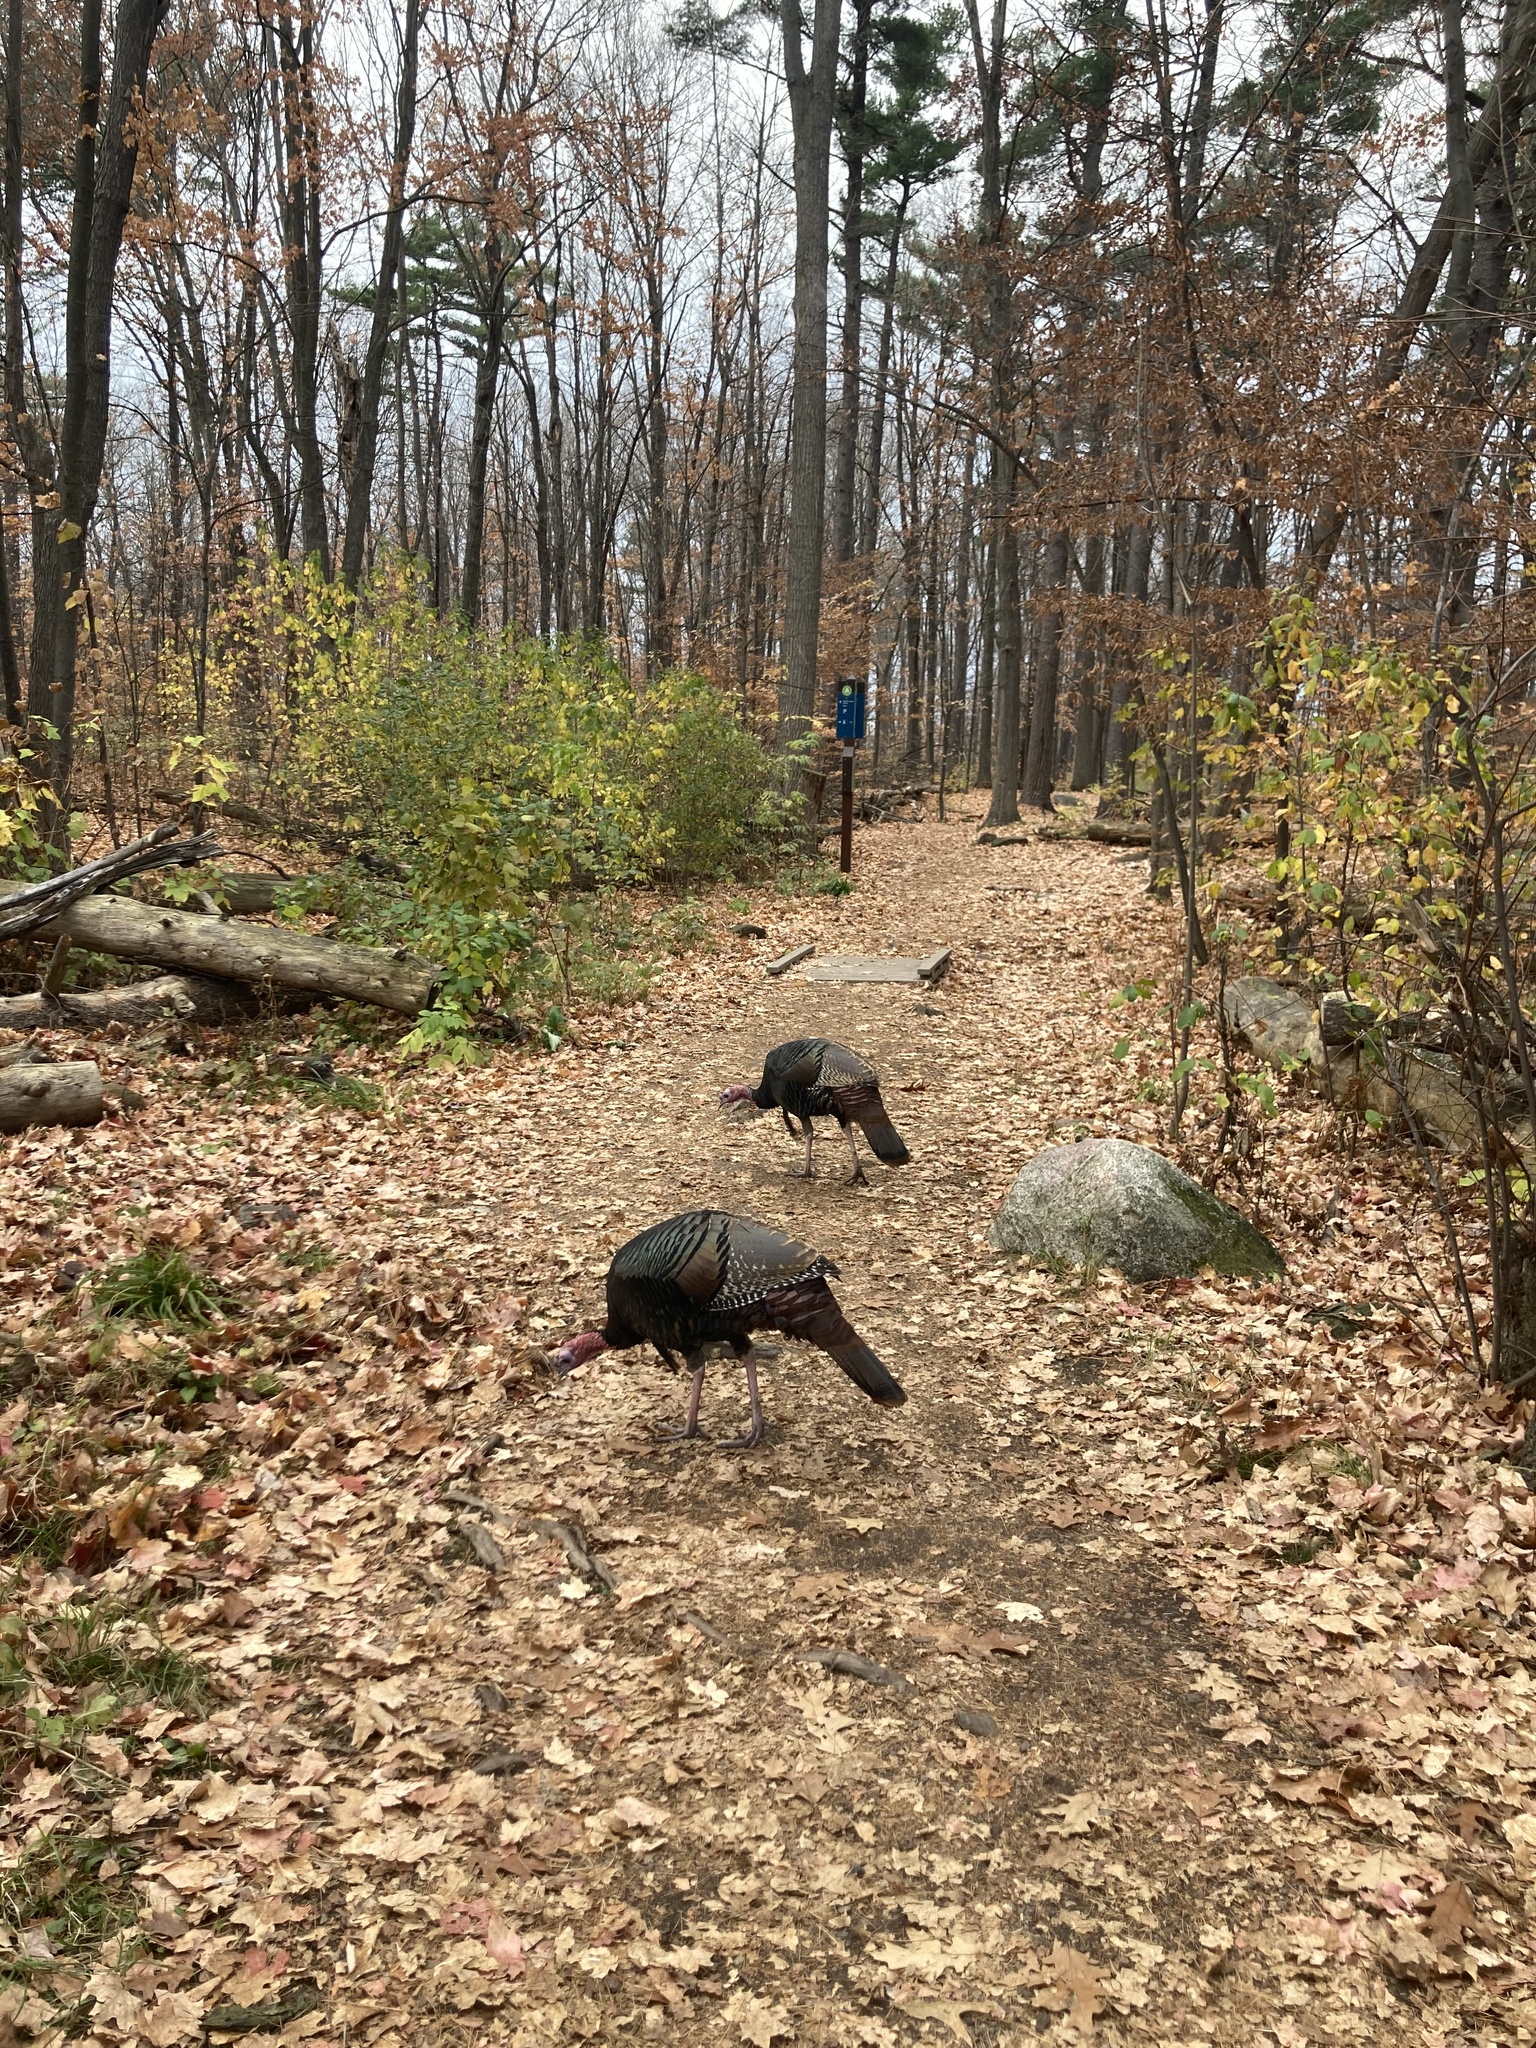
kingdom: Animalia
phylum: Chordata
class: Aves
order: Galliformes
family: Phasianidae
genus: Meleagris
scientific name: Meleagris gallopavo
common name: Wild turkey
